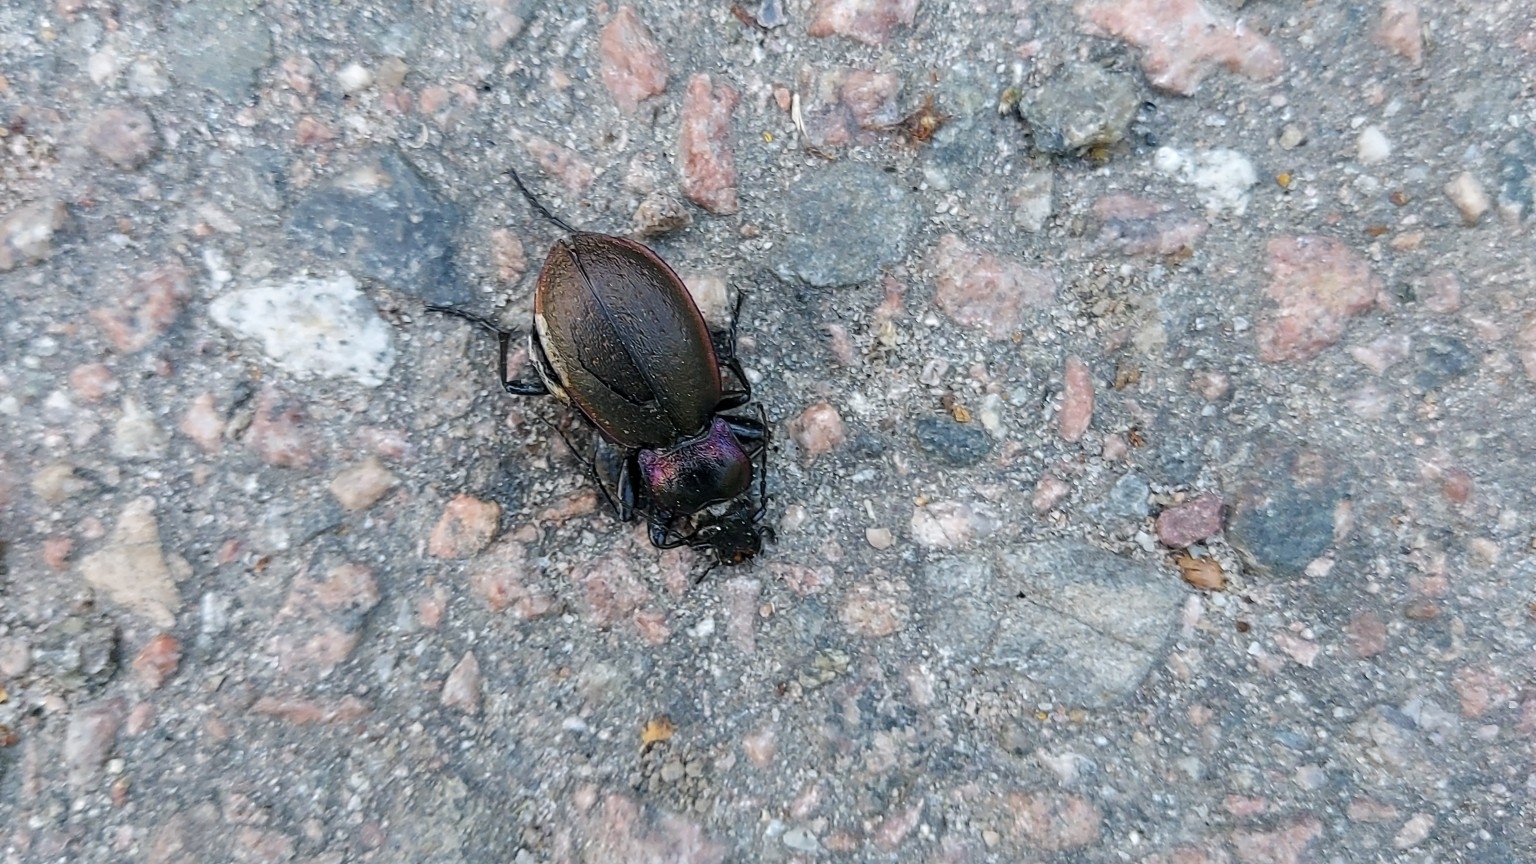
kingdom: Animalia
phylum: Arthropoda
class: Insecta
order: Coleoptera
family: Carabidae
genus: Carabus
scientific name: Carabus nemoralis
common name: European ground beetle
